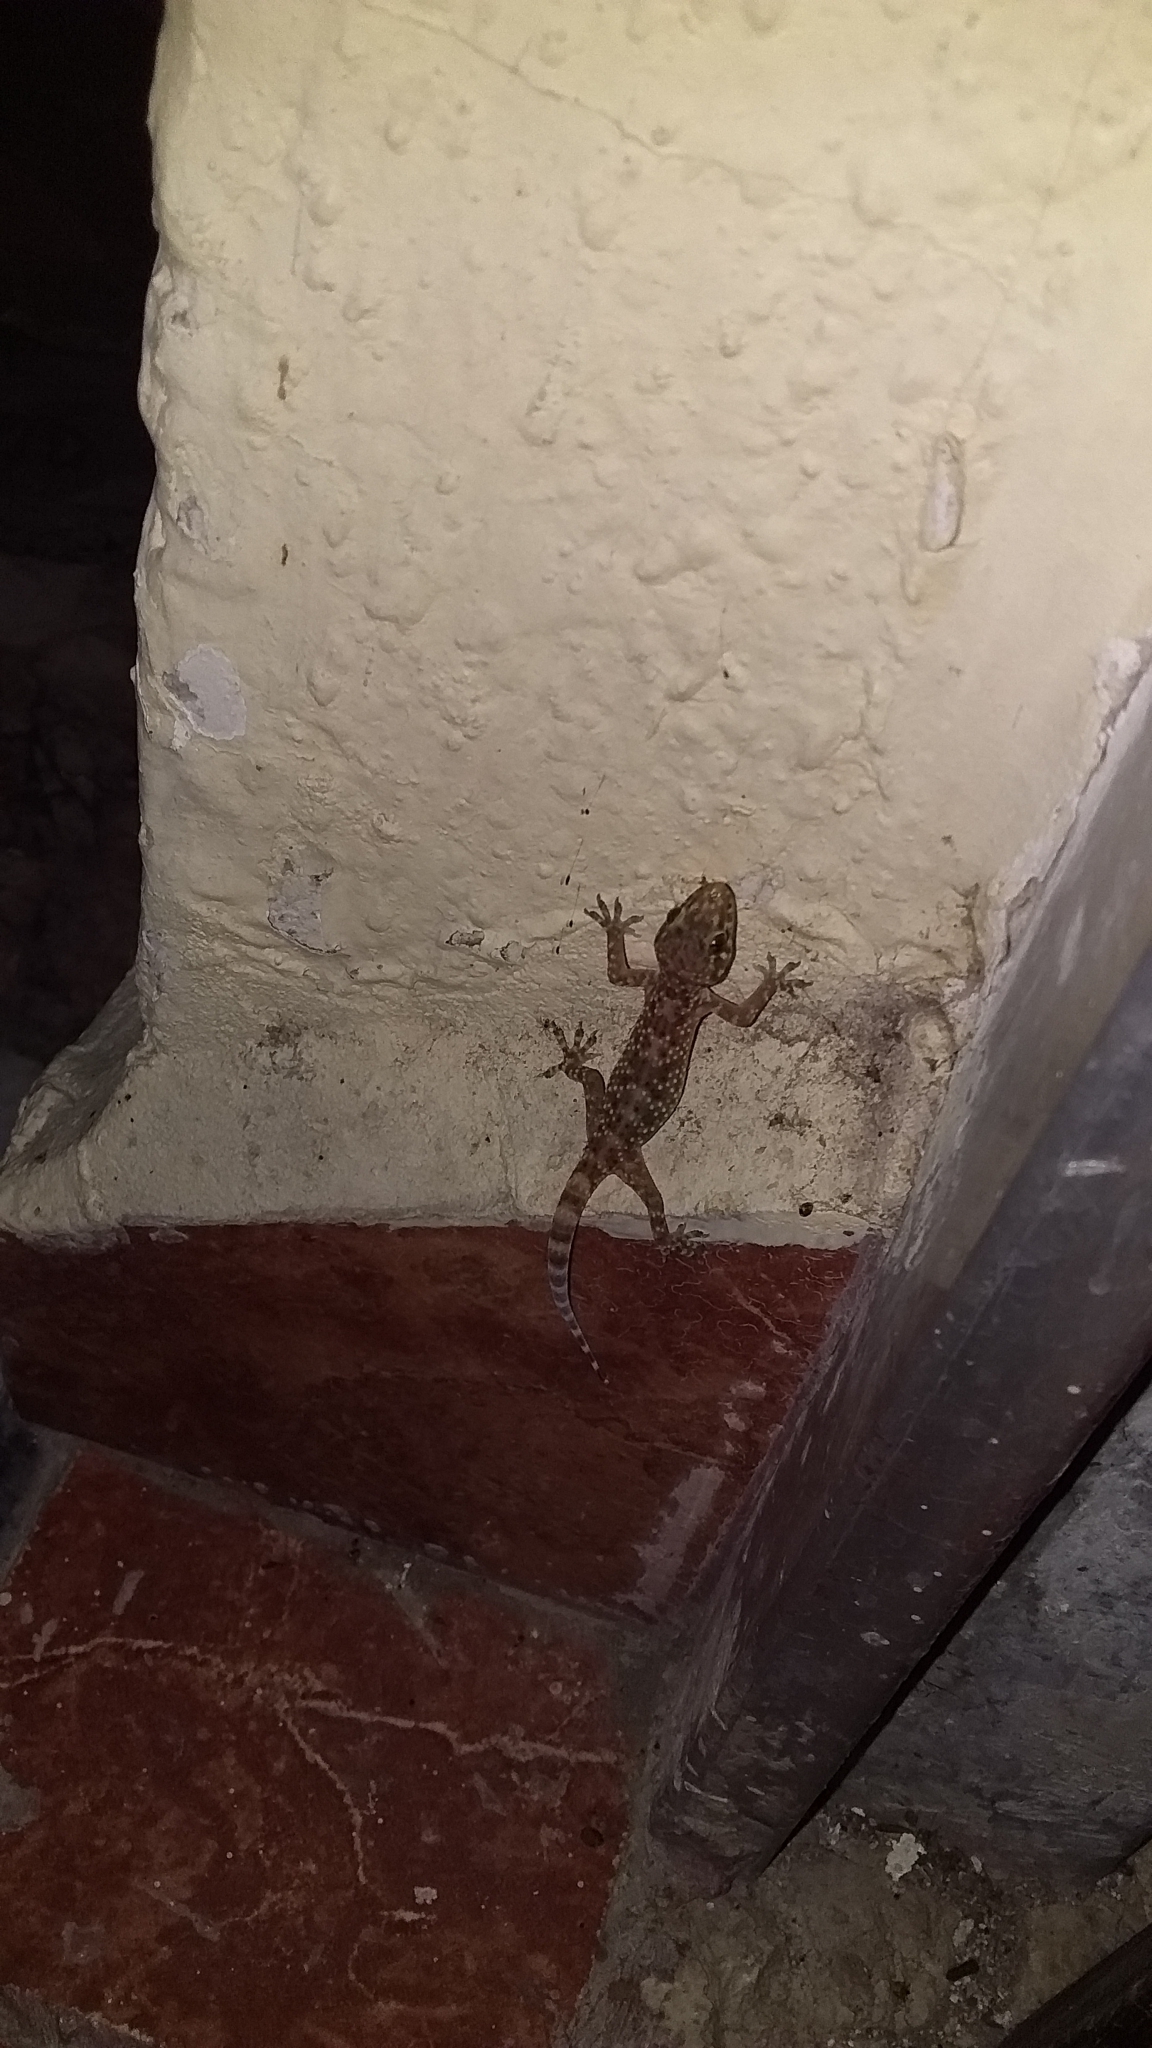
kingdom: Animalia
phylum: Chordata
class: Squamata
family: Gekkonidae
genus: Hemidactylus
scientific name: Hemidactylus turcicus
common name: Turkish gecko
